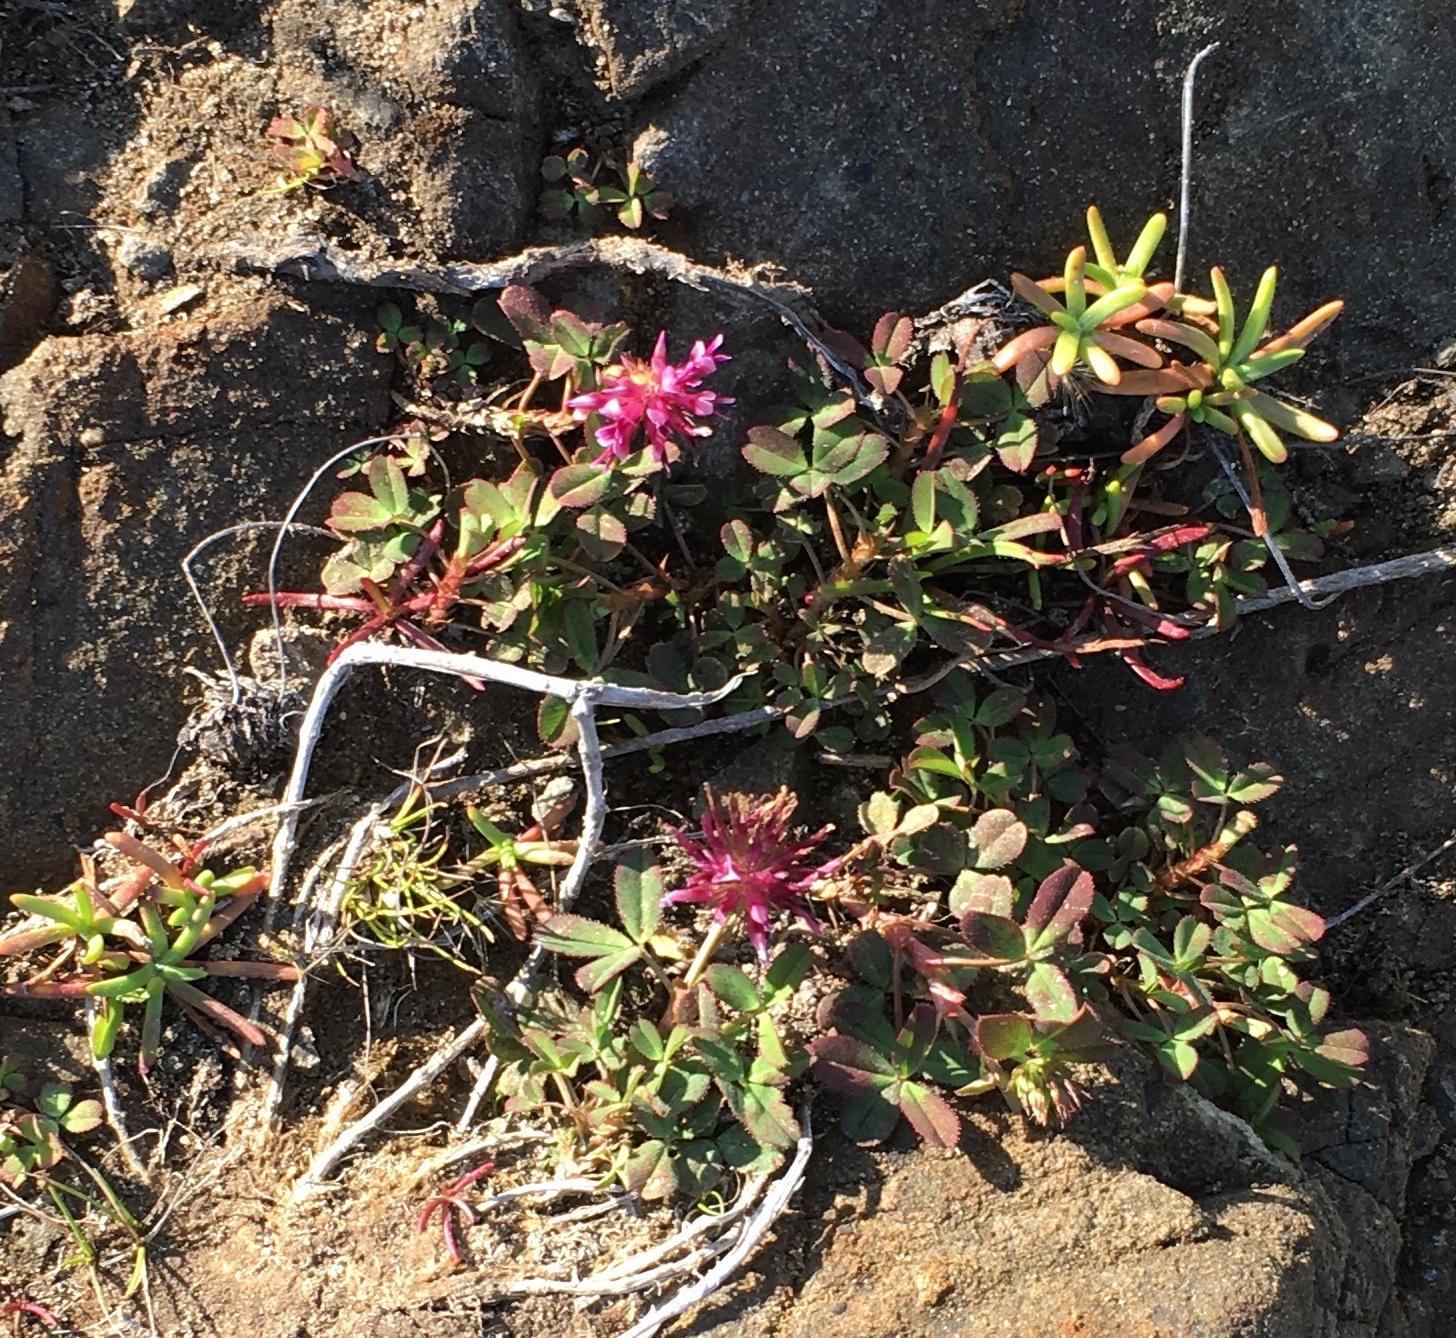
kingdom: Plantae
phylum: Tracheophyta
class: Magnoliopsida
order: Fabales
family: Fabaceae
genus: Trifolium
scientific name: Trifolium wormskioldii
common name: Springbank clover
